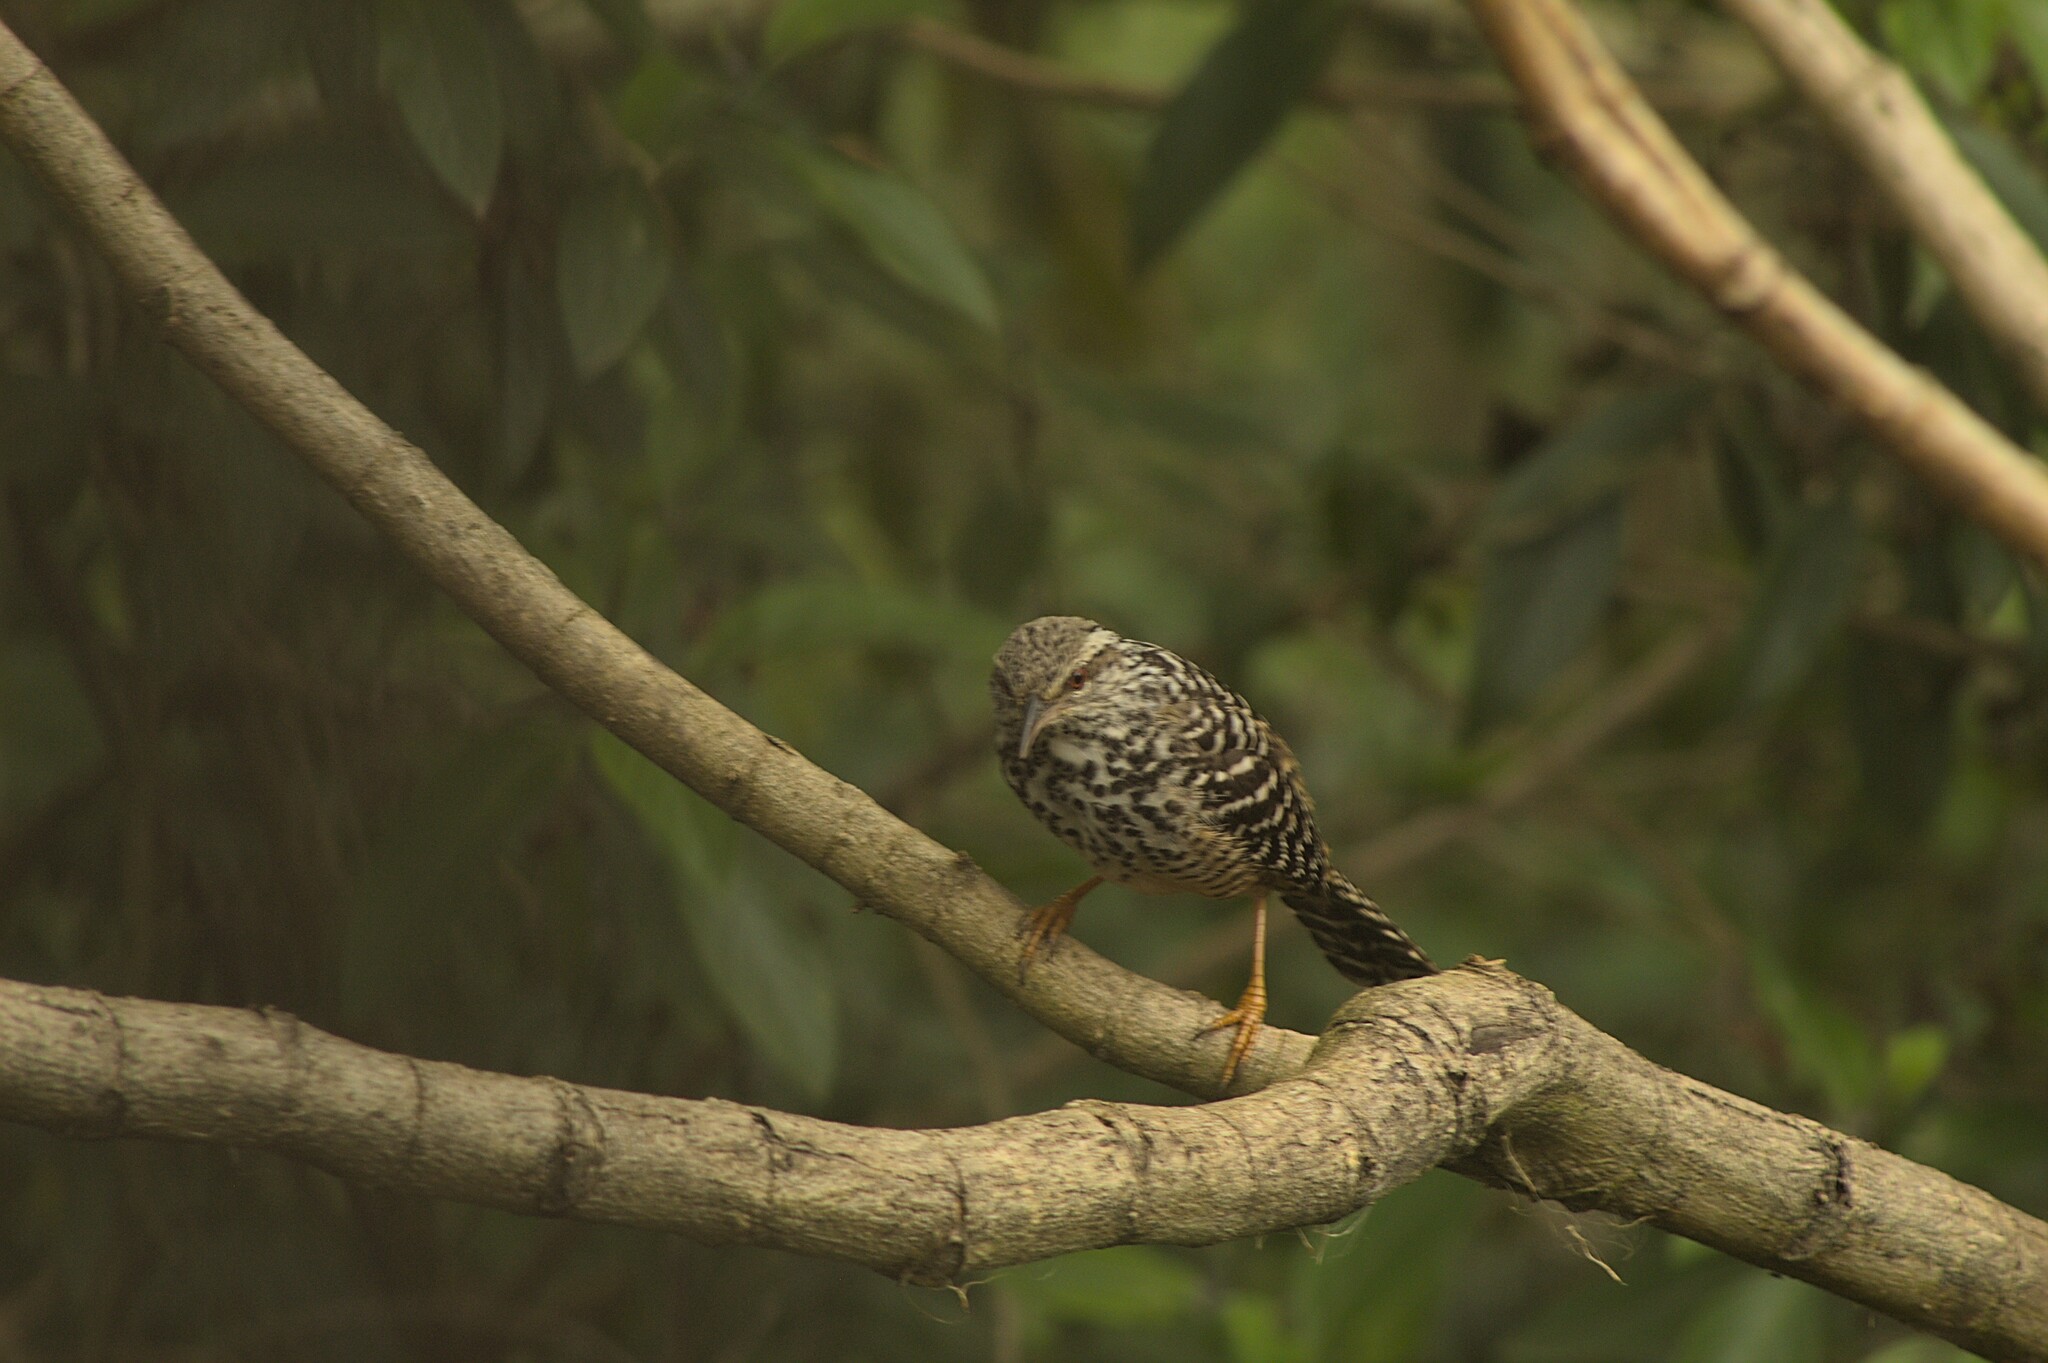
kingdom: Animalia
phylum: Chordata
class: Aves
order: Passeriformes
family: Troglodytidae
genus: Campylorhynchus
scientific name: Campylorhynchus zonatus
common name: Band-backed wren
